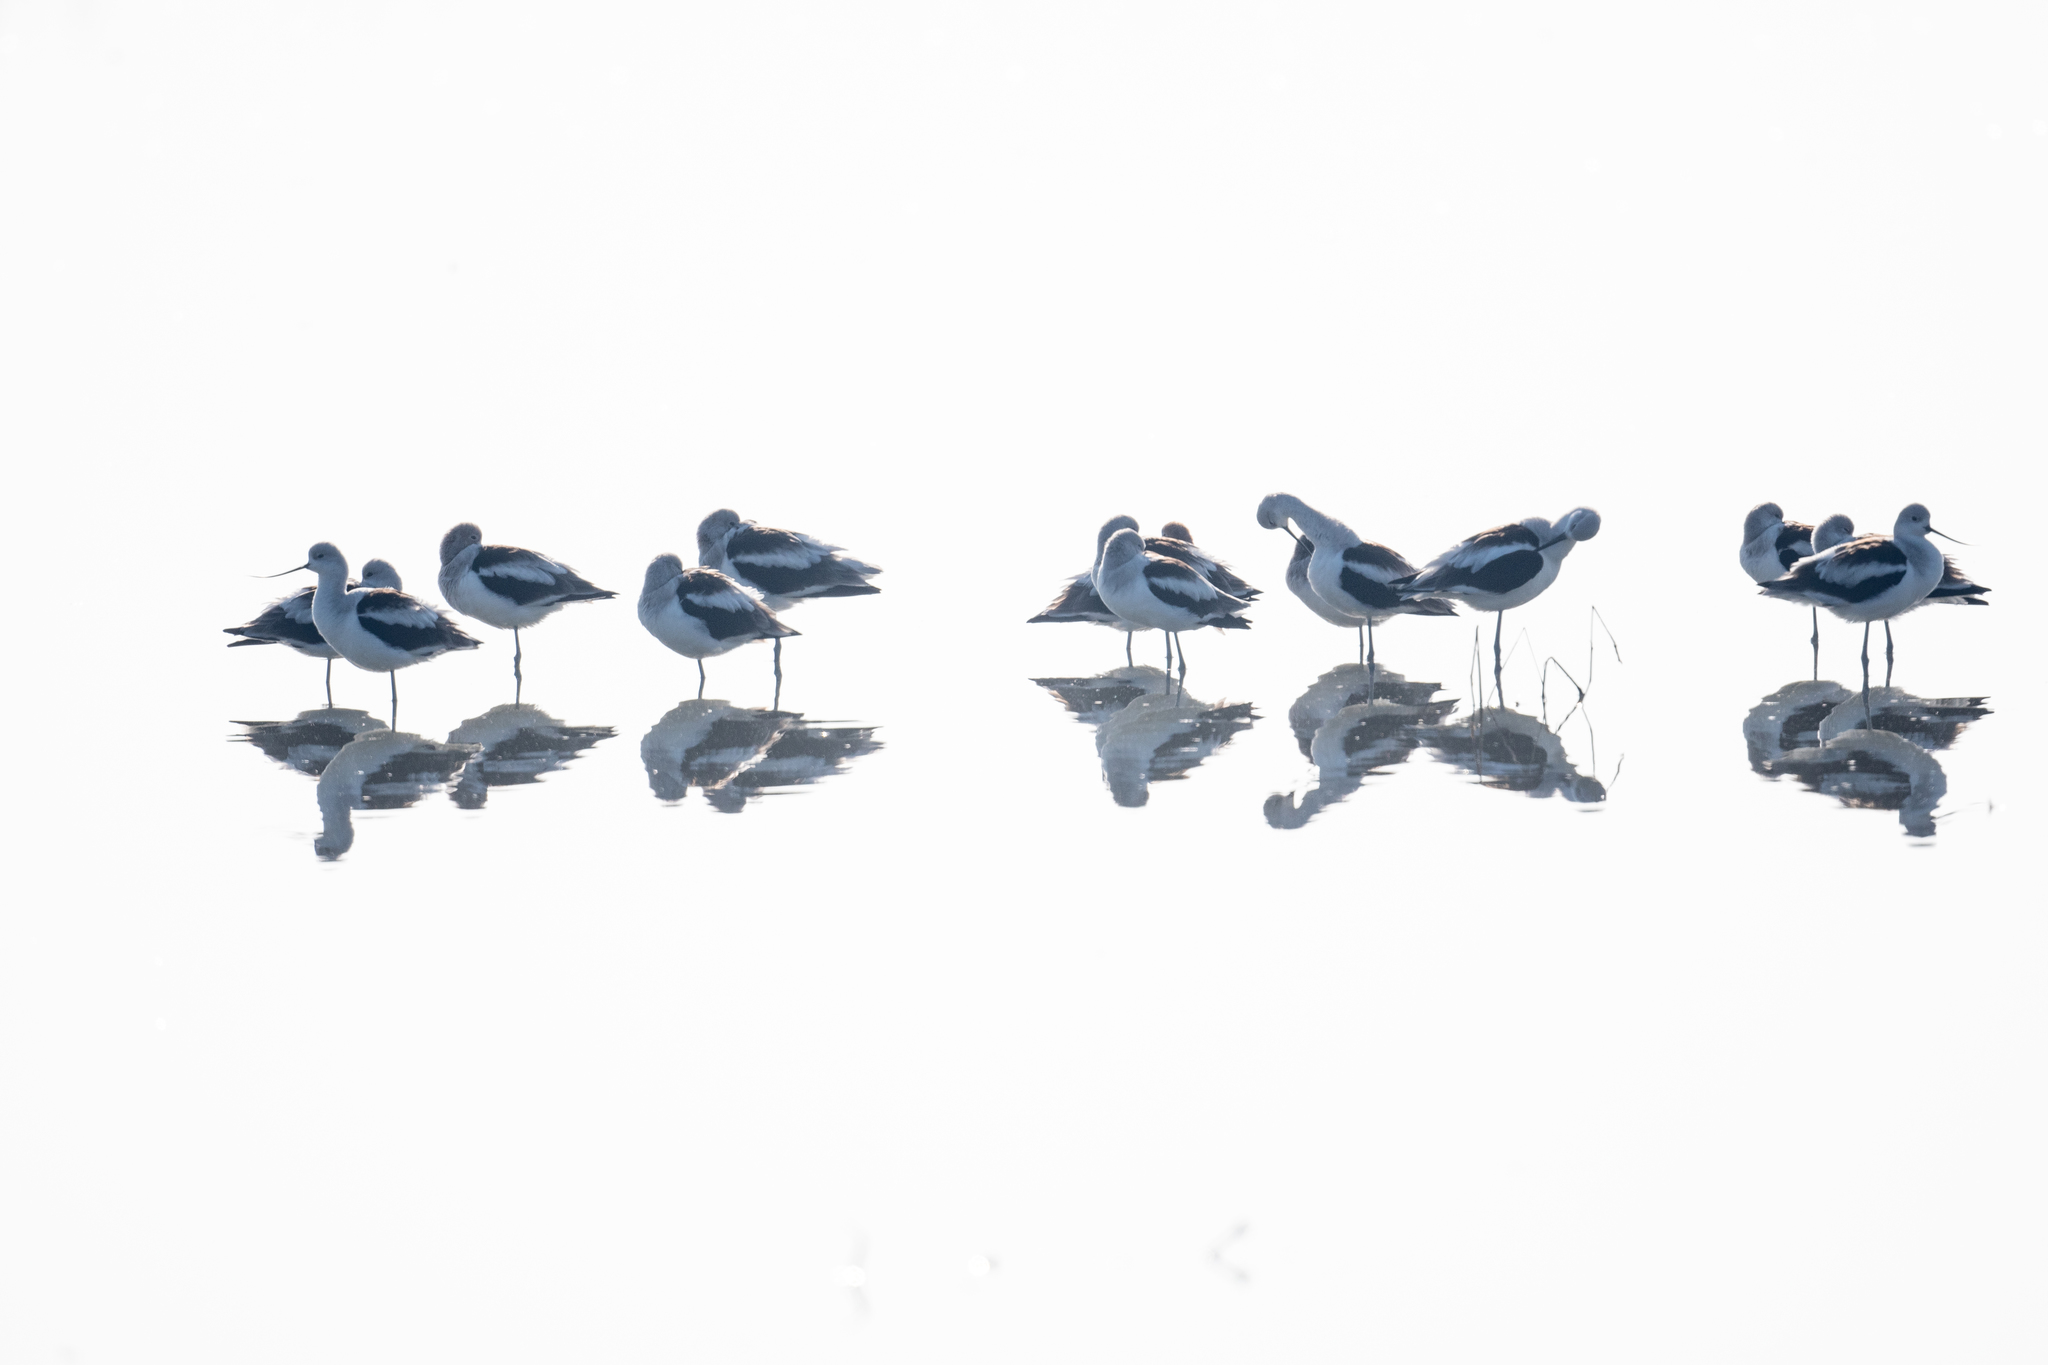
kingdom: Animalia
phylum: Chordata
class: Aves
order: Charadriiformes
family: Recurvirostridae
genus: Recurvirostra
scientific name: Recurvirostra americana
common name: American avocet
